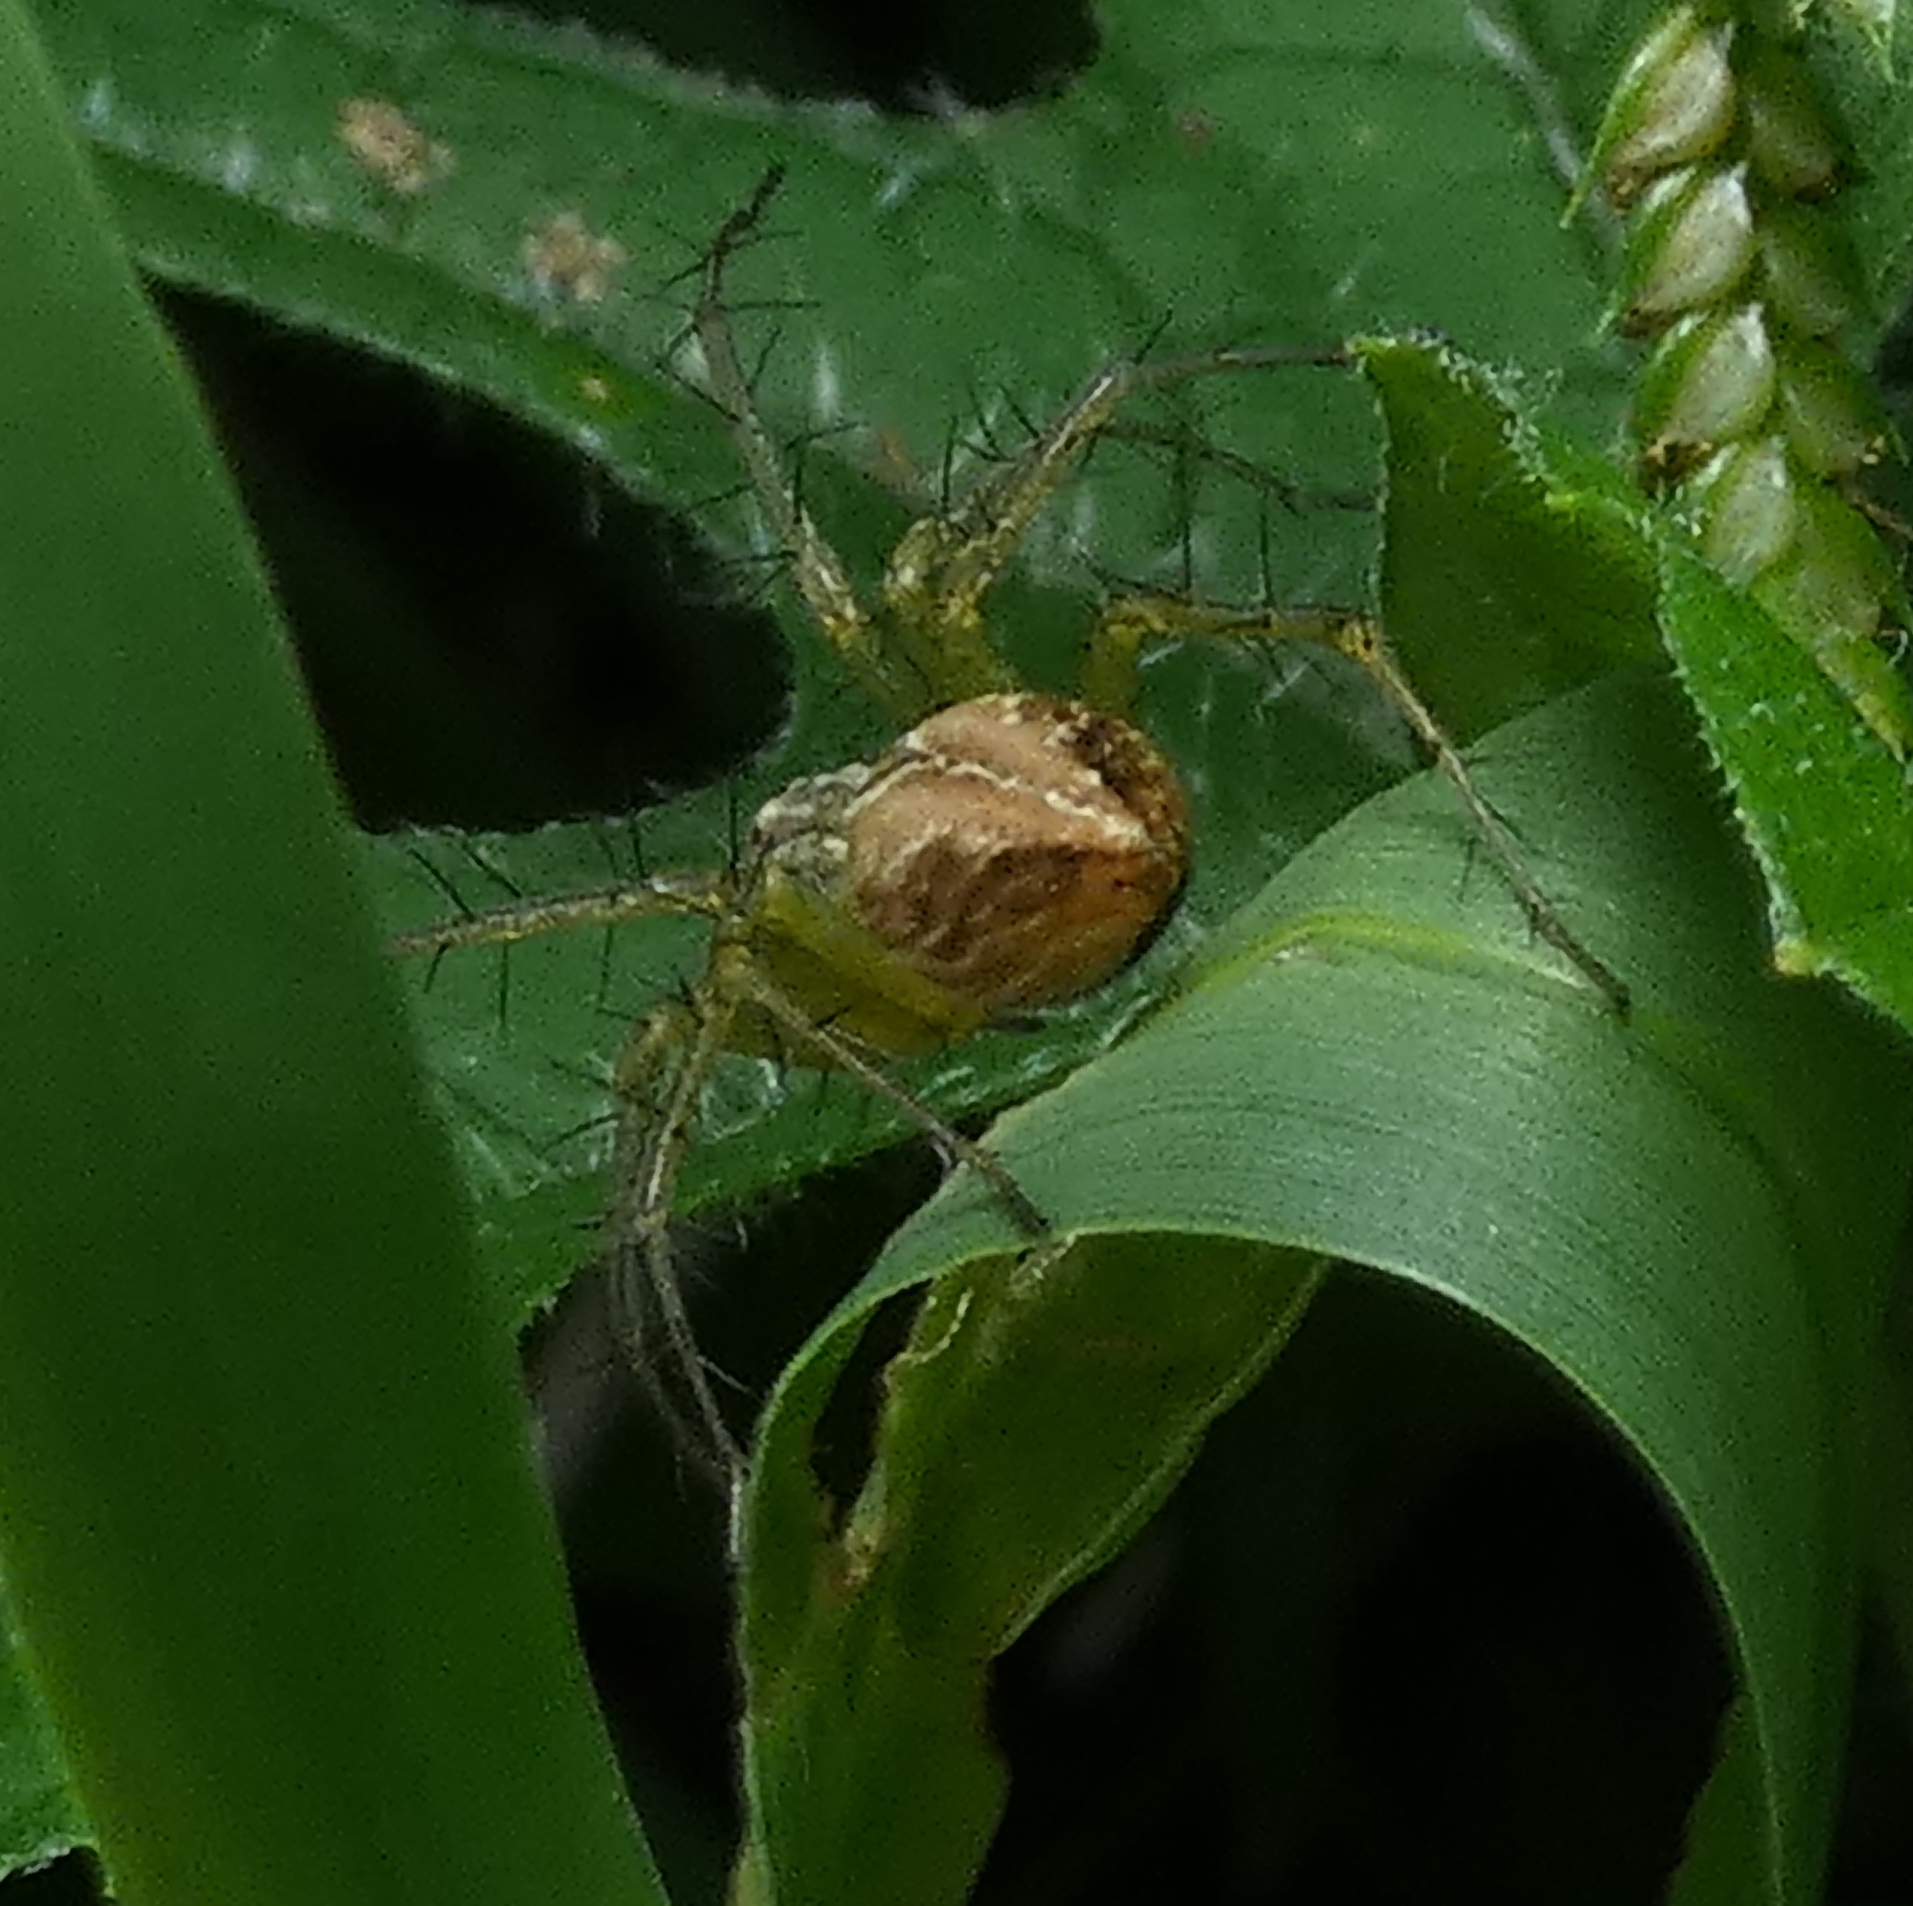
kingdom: Animalia
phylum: Arthropoda
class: Arachnida
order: Araneae
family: Oxyopidae
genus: Oxyopes
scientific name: Oxyopes salticus
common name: Lynx spiders
